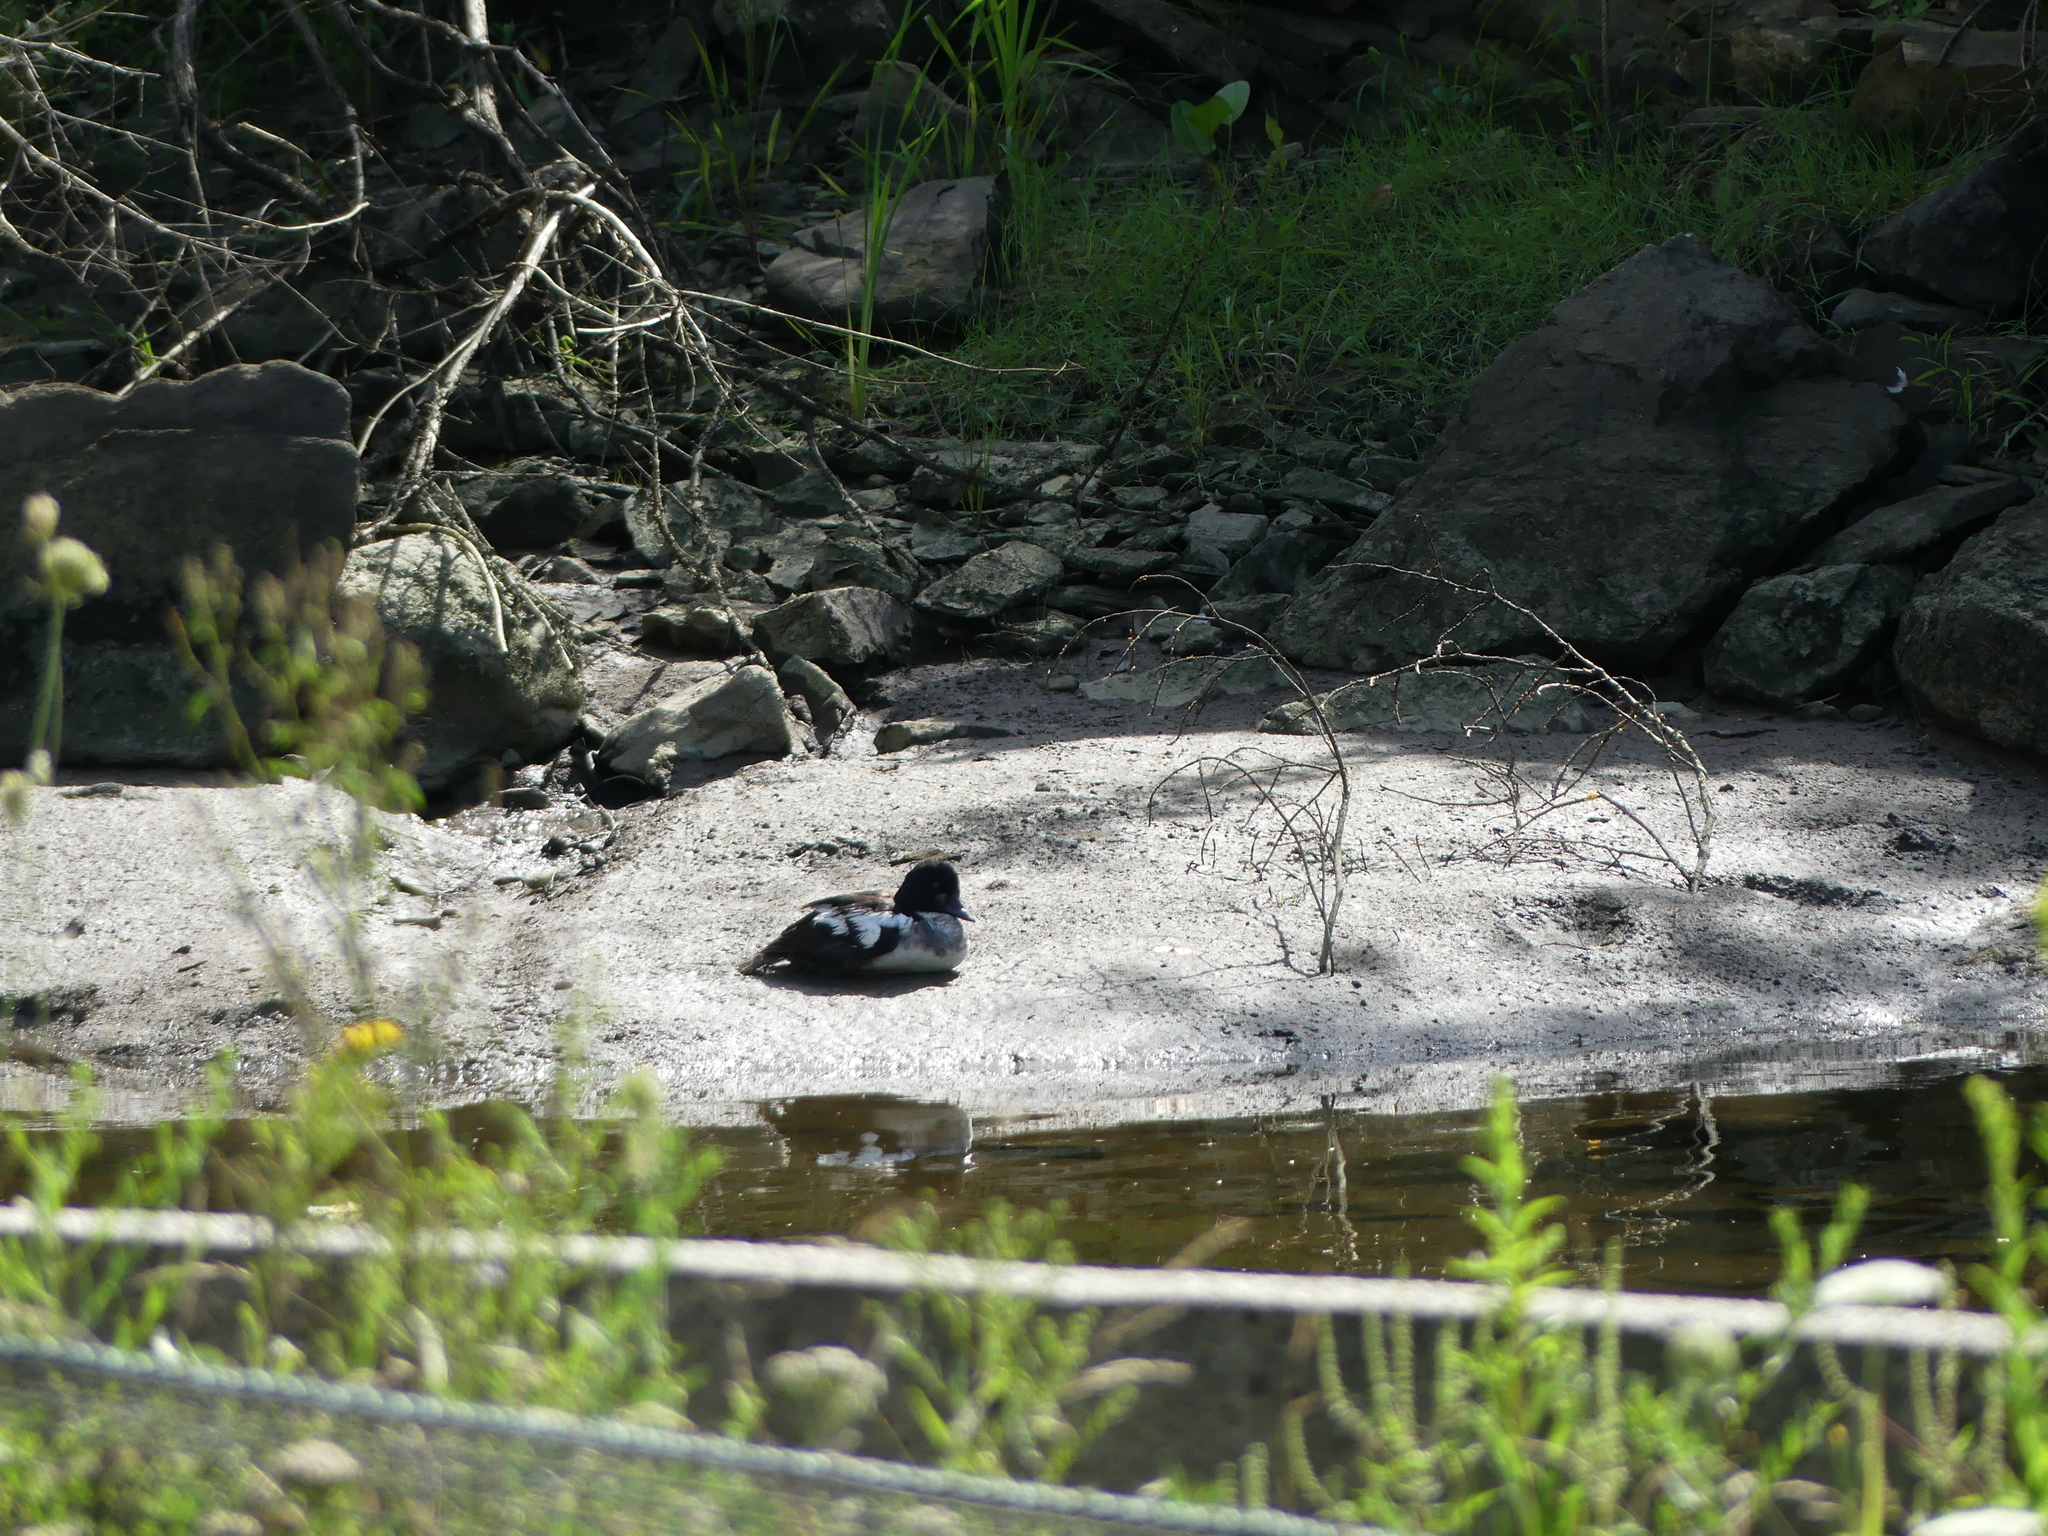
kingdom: Animalia
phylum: Chordata
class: Aves
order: Anseriformes
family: Anatidae
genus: Bucephala
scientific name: Bucephala clangula
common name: Common goldeneye
